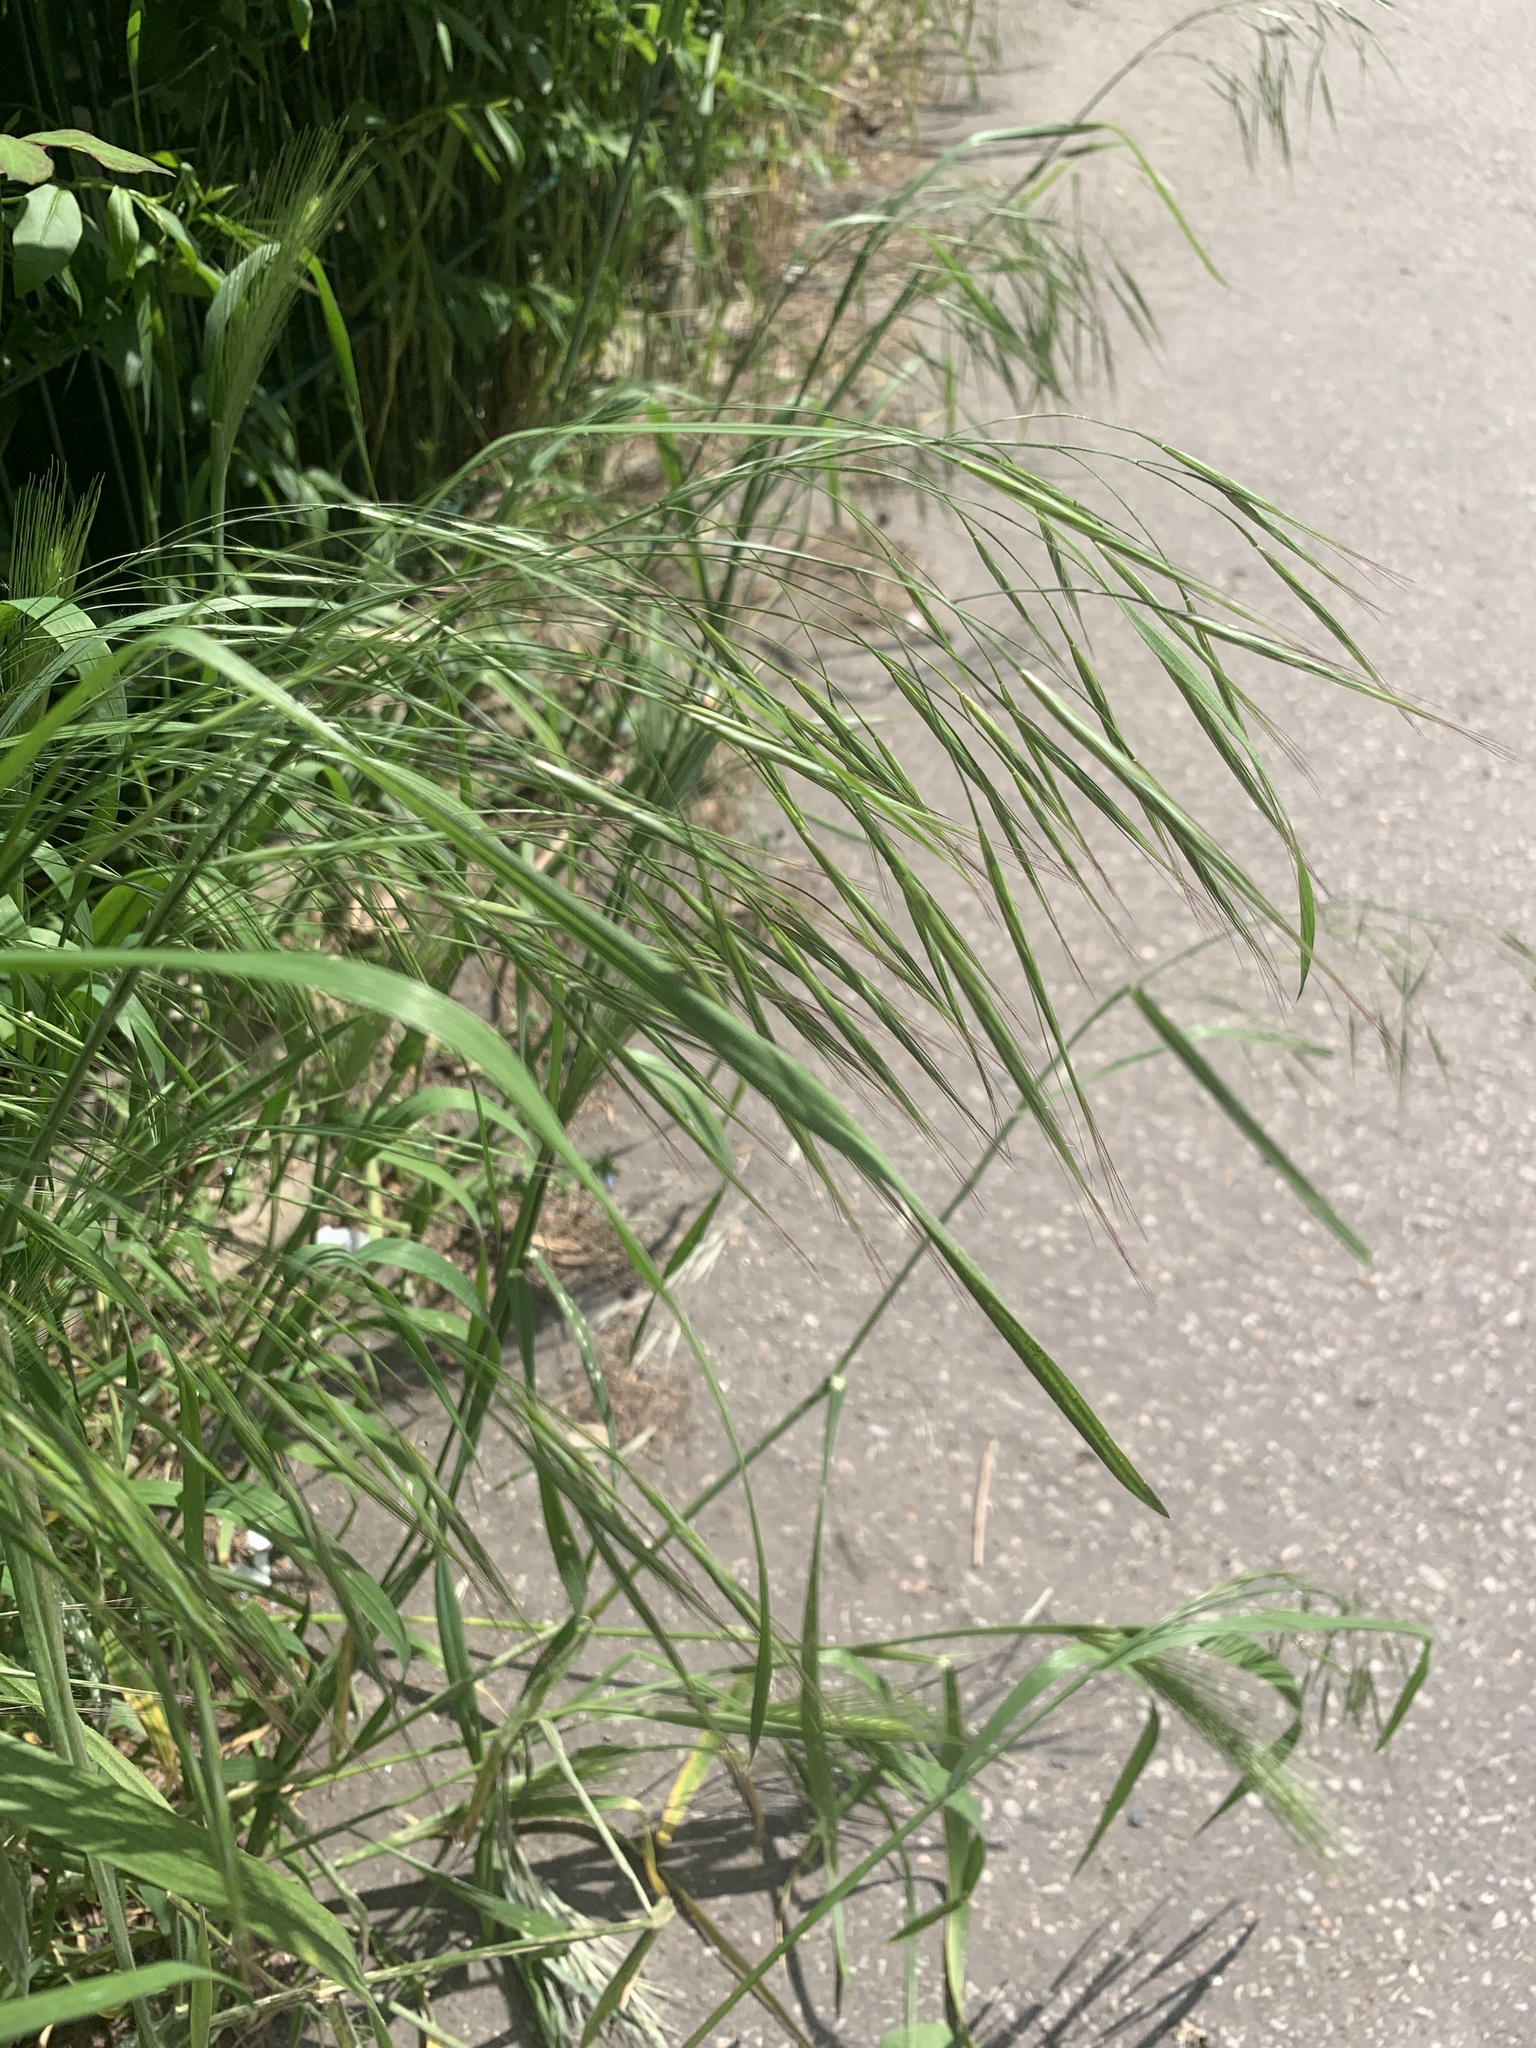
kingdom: Plantae
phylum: Tracheophyta
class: Liliopsida
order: Poales
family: Poaceae
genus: Bromus
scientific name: Bromus sterilis
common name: Poverty brome
